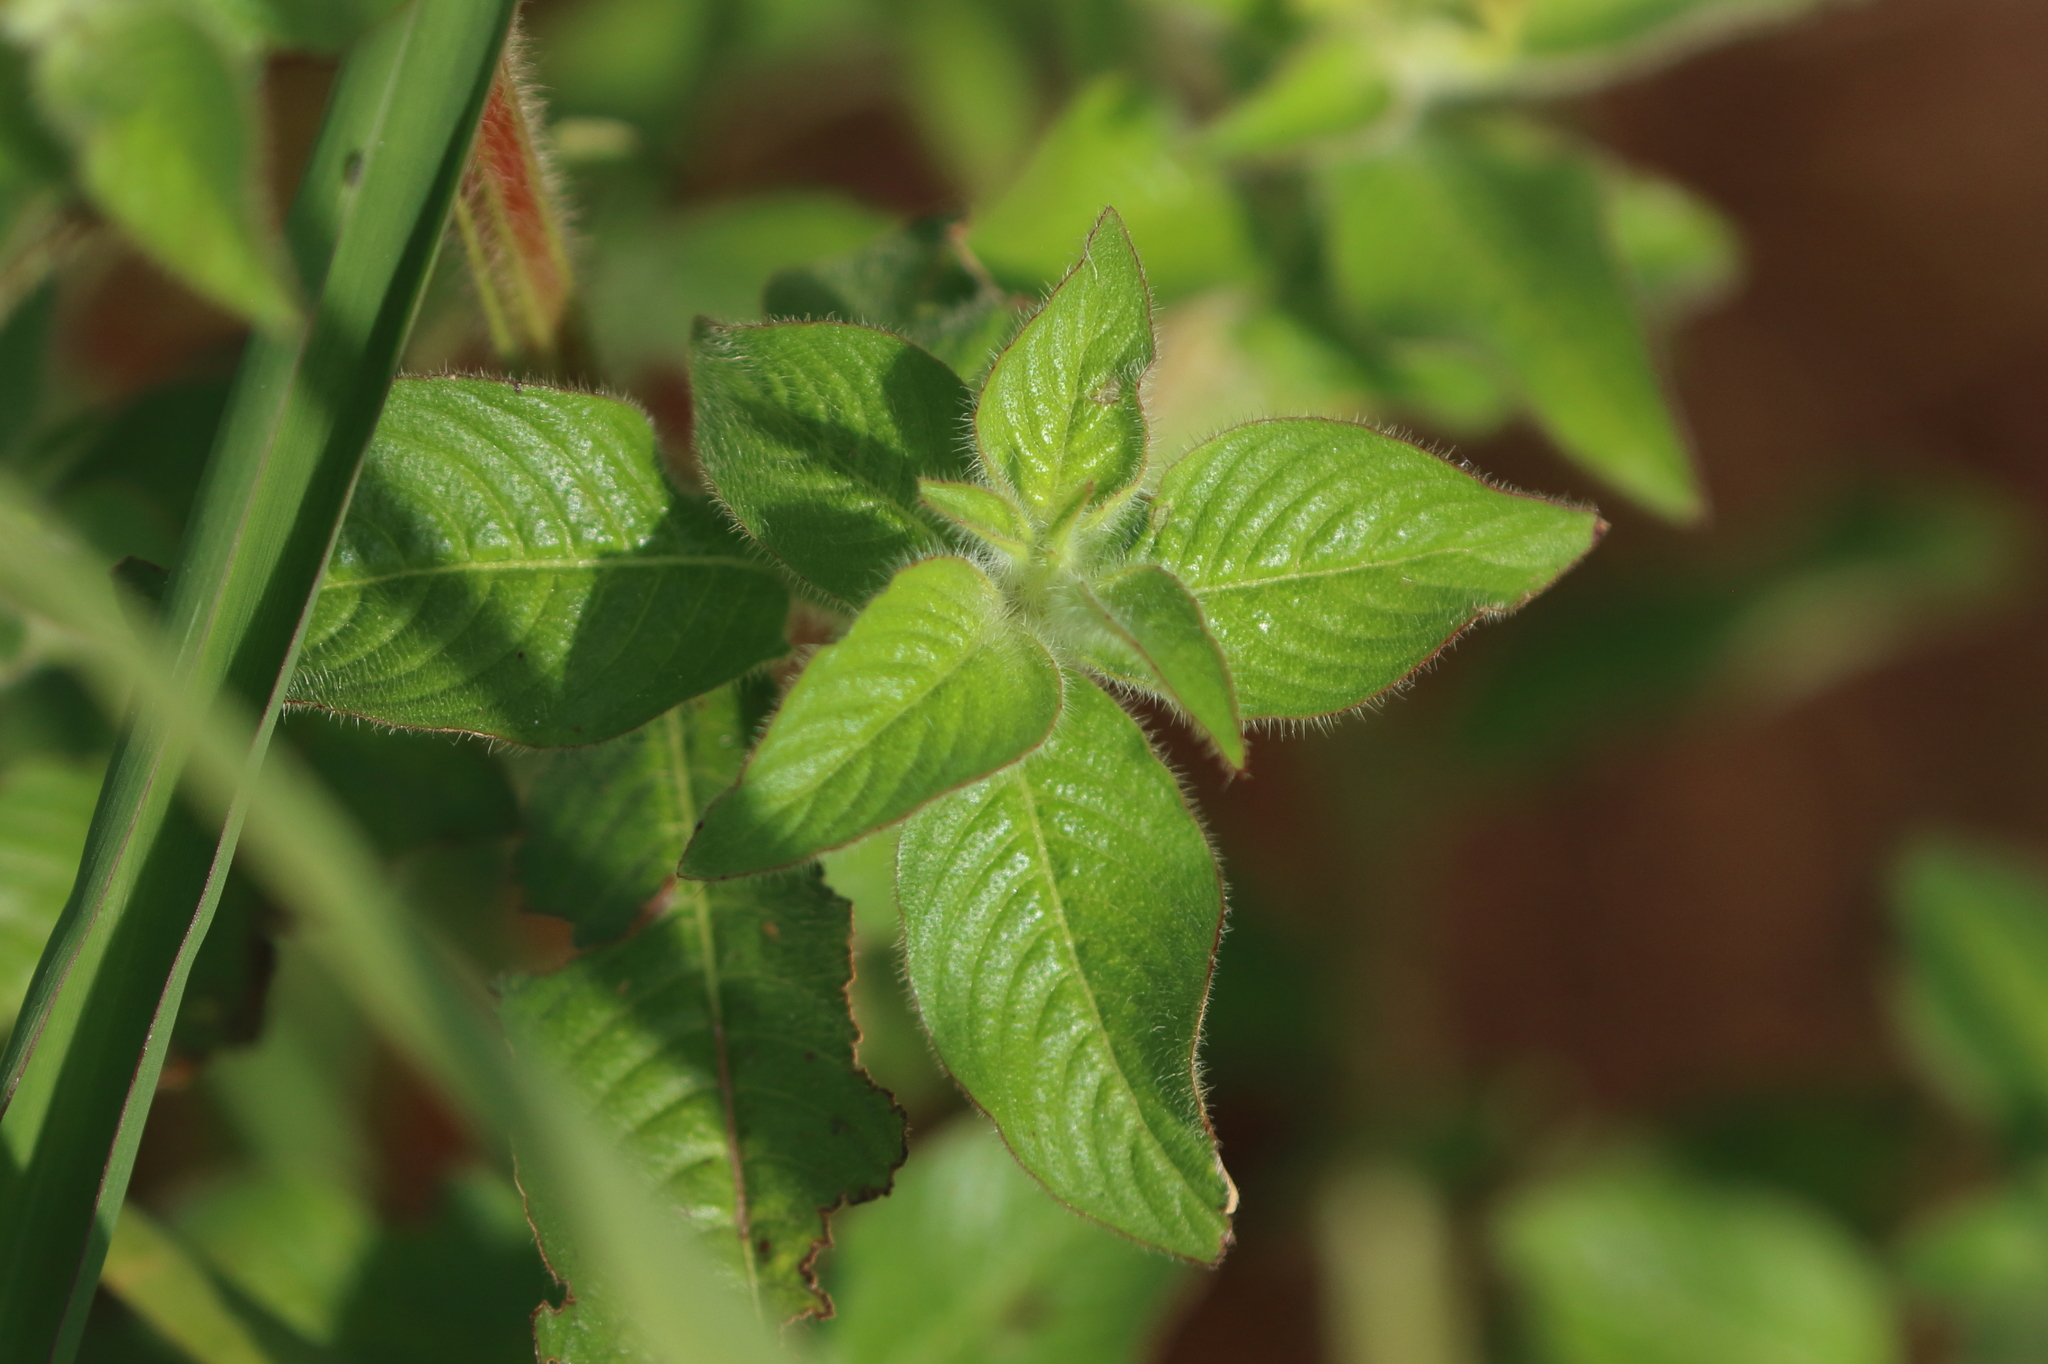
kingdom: Plantae
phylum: Tracheophyta
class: Magnoliopsida
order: Myrtales
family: Onagraceae
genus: Ludwigia
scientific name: Ludwigia octovalvis
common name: Water-primrose
